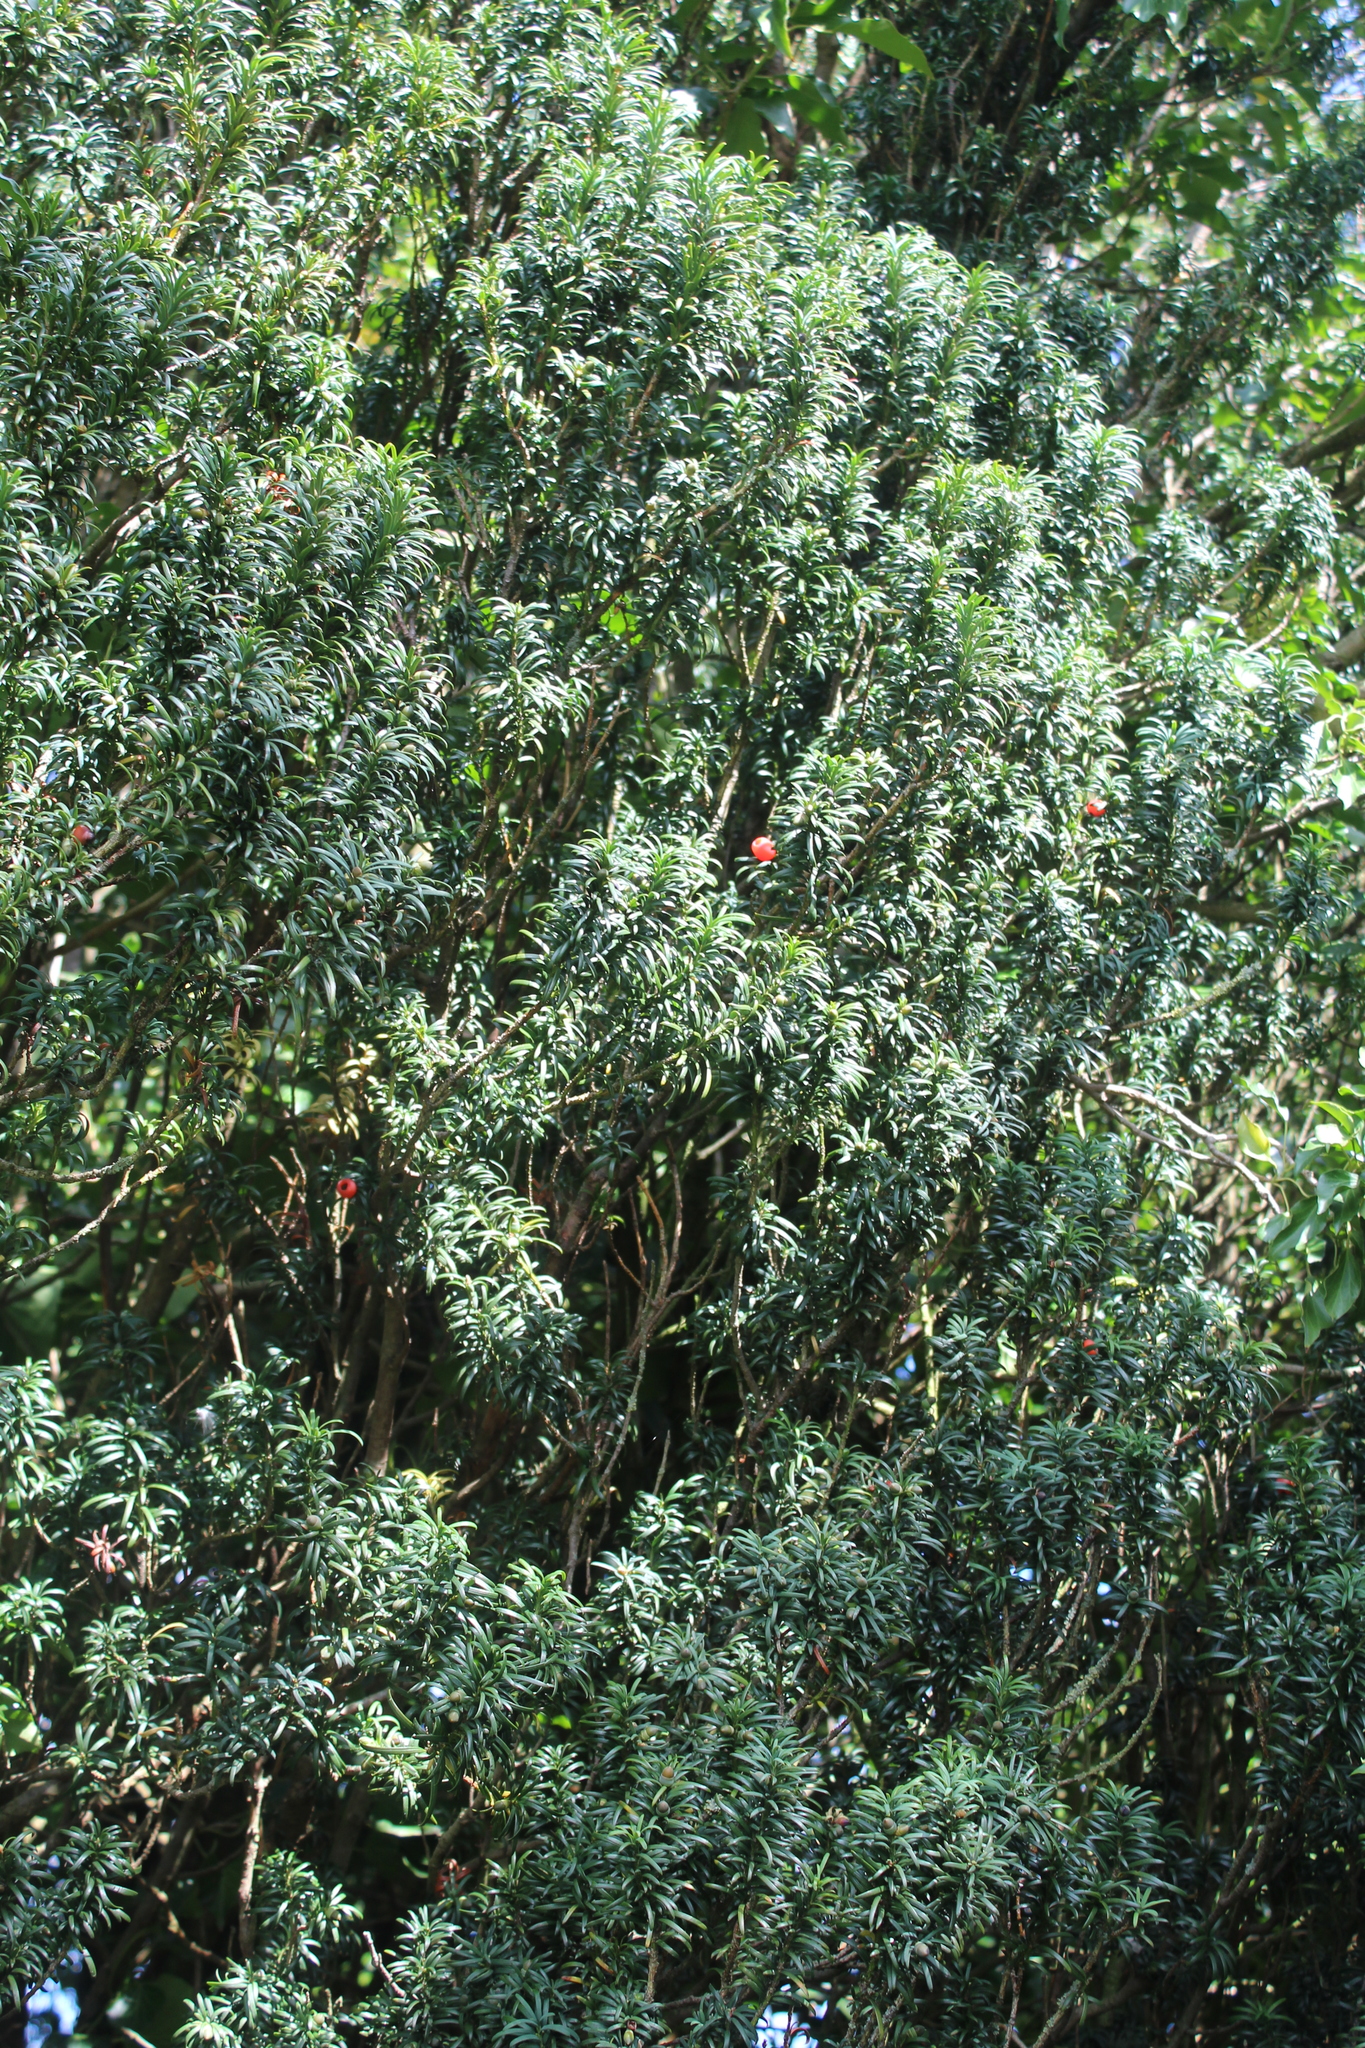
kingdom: Plantae
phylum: Tracheophyta
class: Pinopsida
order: Pinales
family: Taxaceae
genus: Taxus
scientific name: Taxus baccata
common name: Yew
